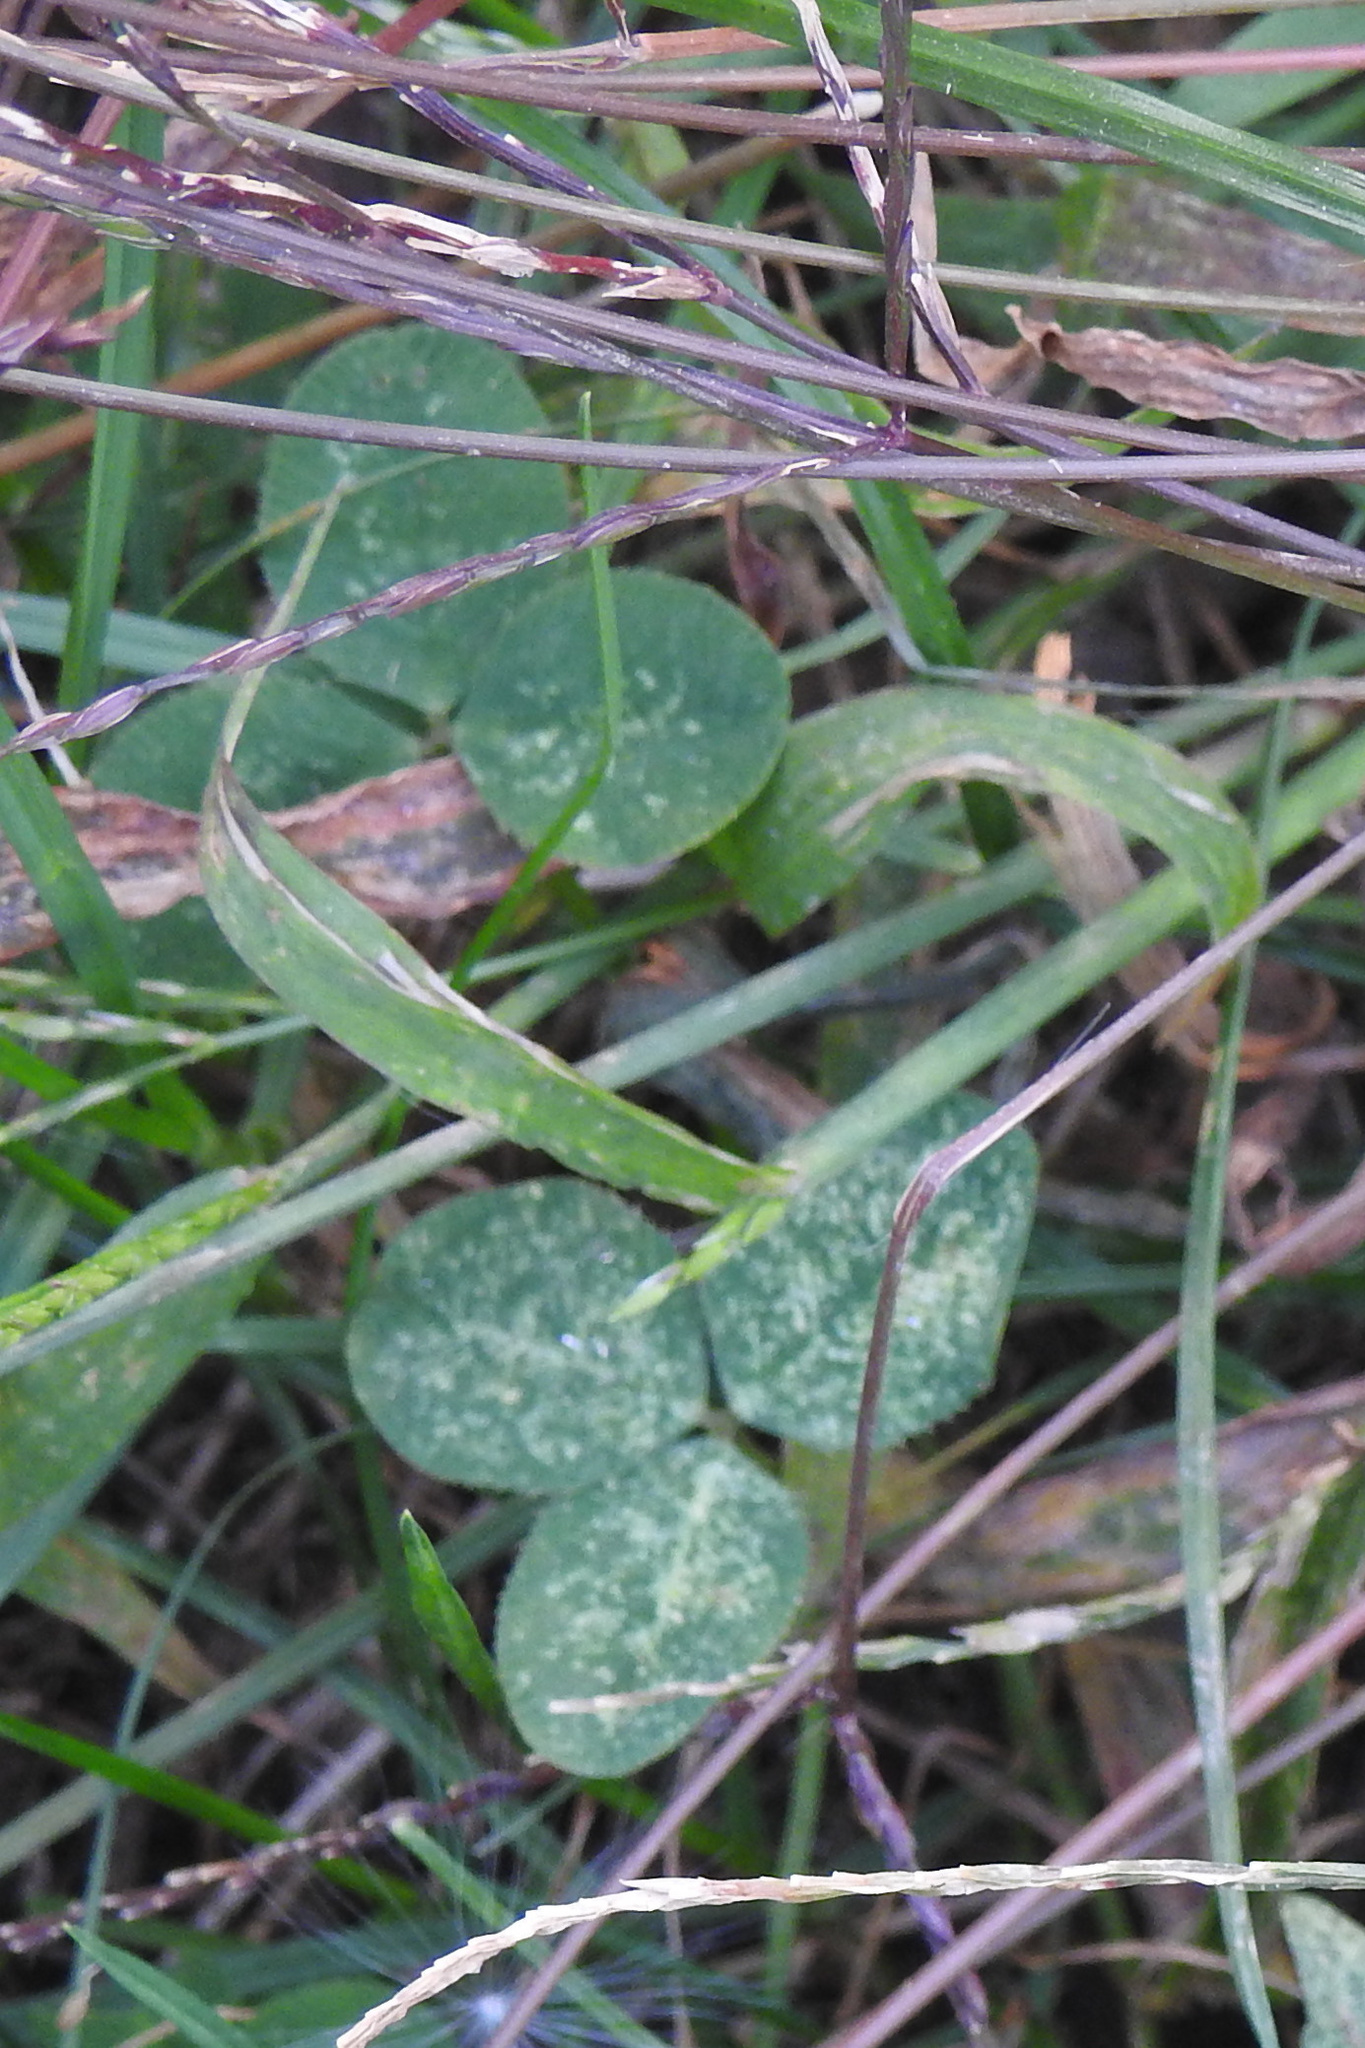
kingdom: Plantae
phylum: Tracheophyta
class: Magnoliopsida
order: Fabales
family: Fabaceae
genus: Trifolium
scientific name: Trifolium repens
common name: White clover
